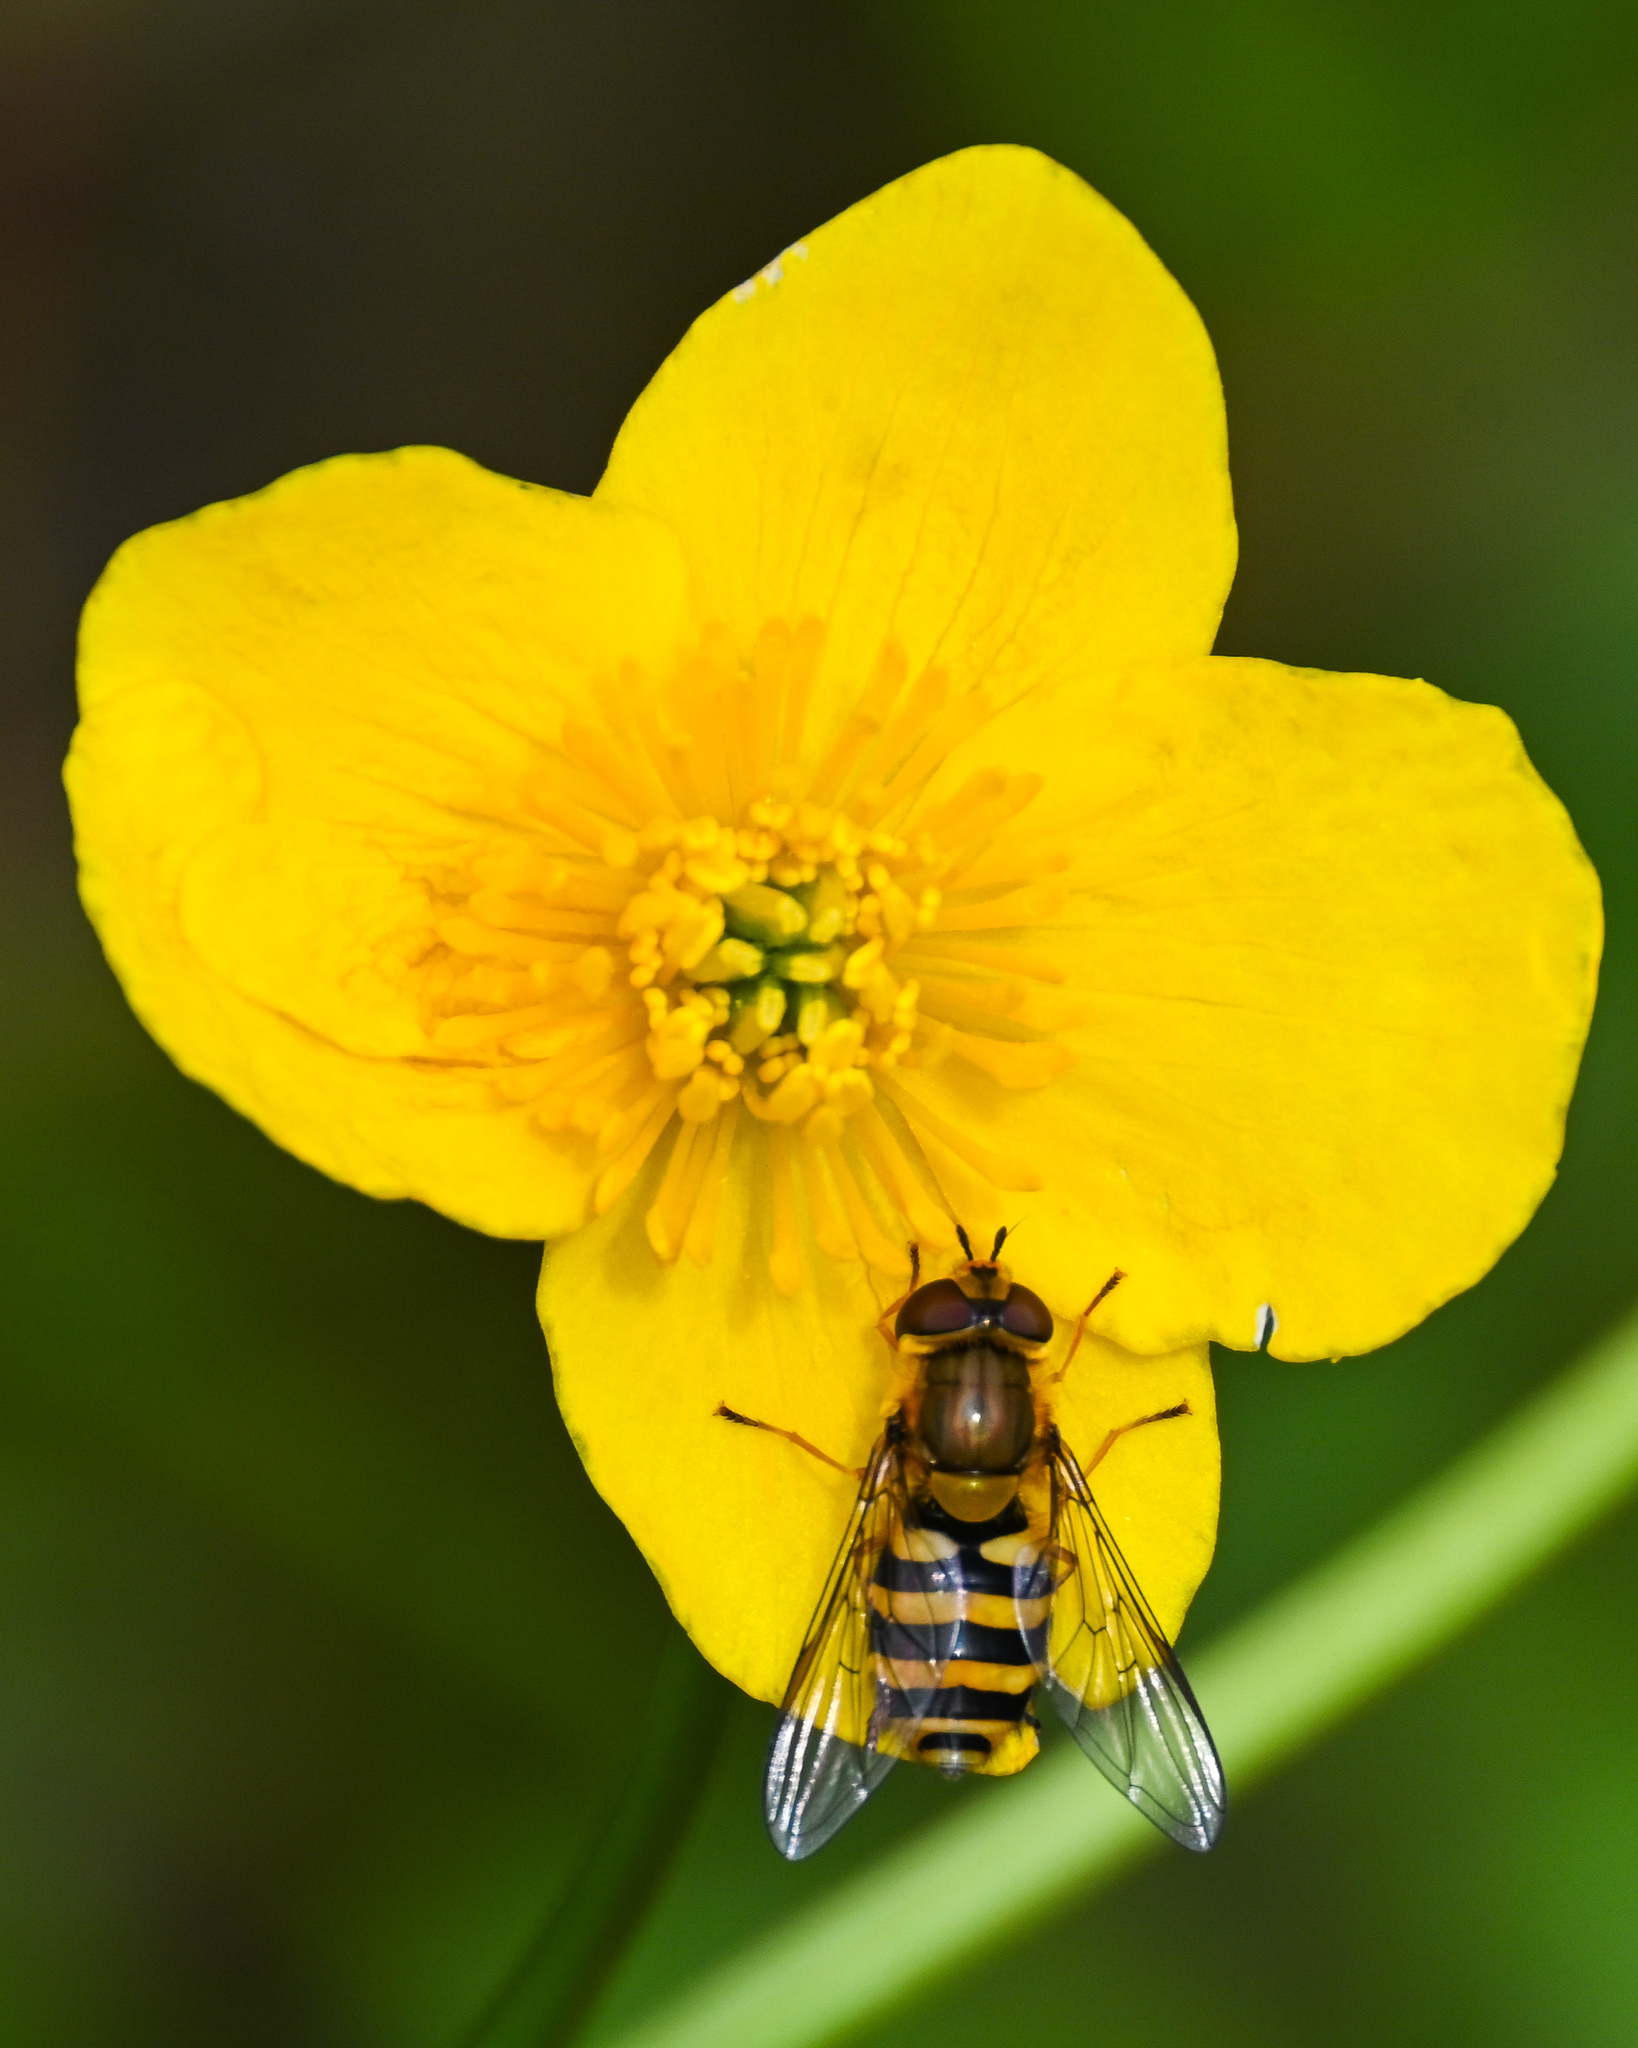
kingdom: Animalia
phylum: Arthropoda
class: Insecta
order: Diptera
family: Syrphidae
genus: Syrphus
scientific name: Syrphus ribesii
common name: Common flower fly
